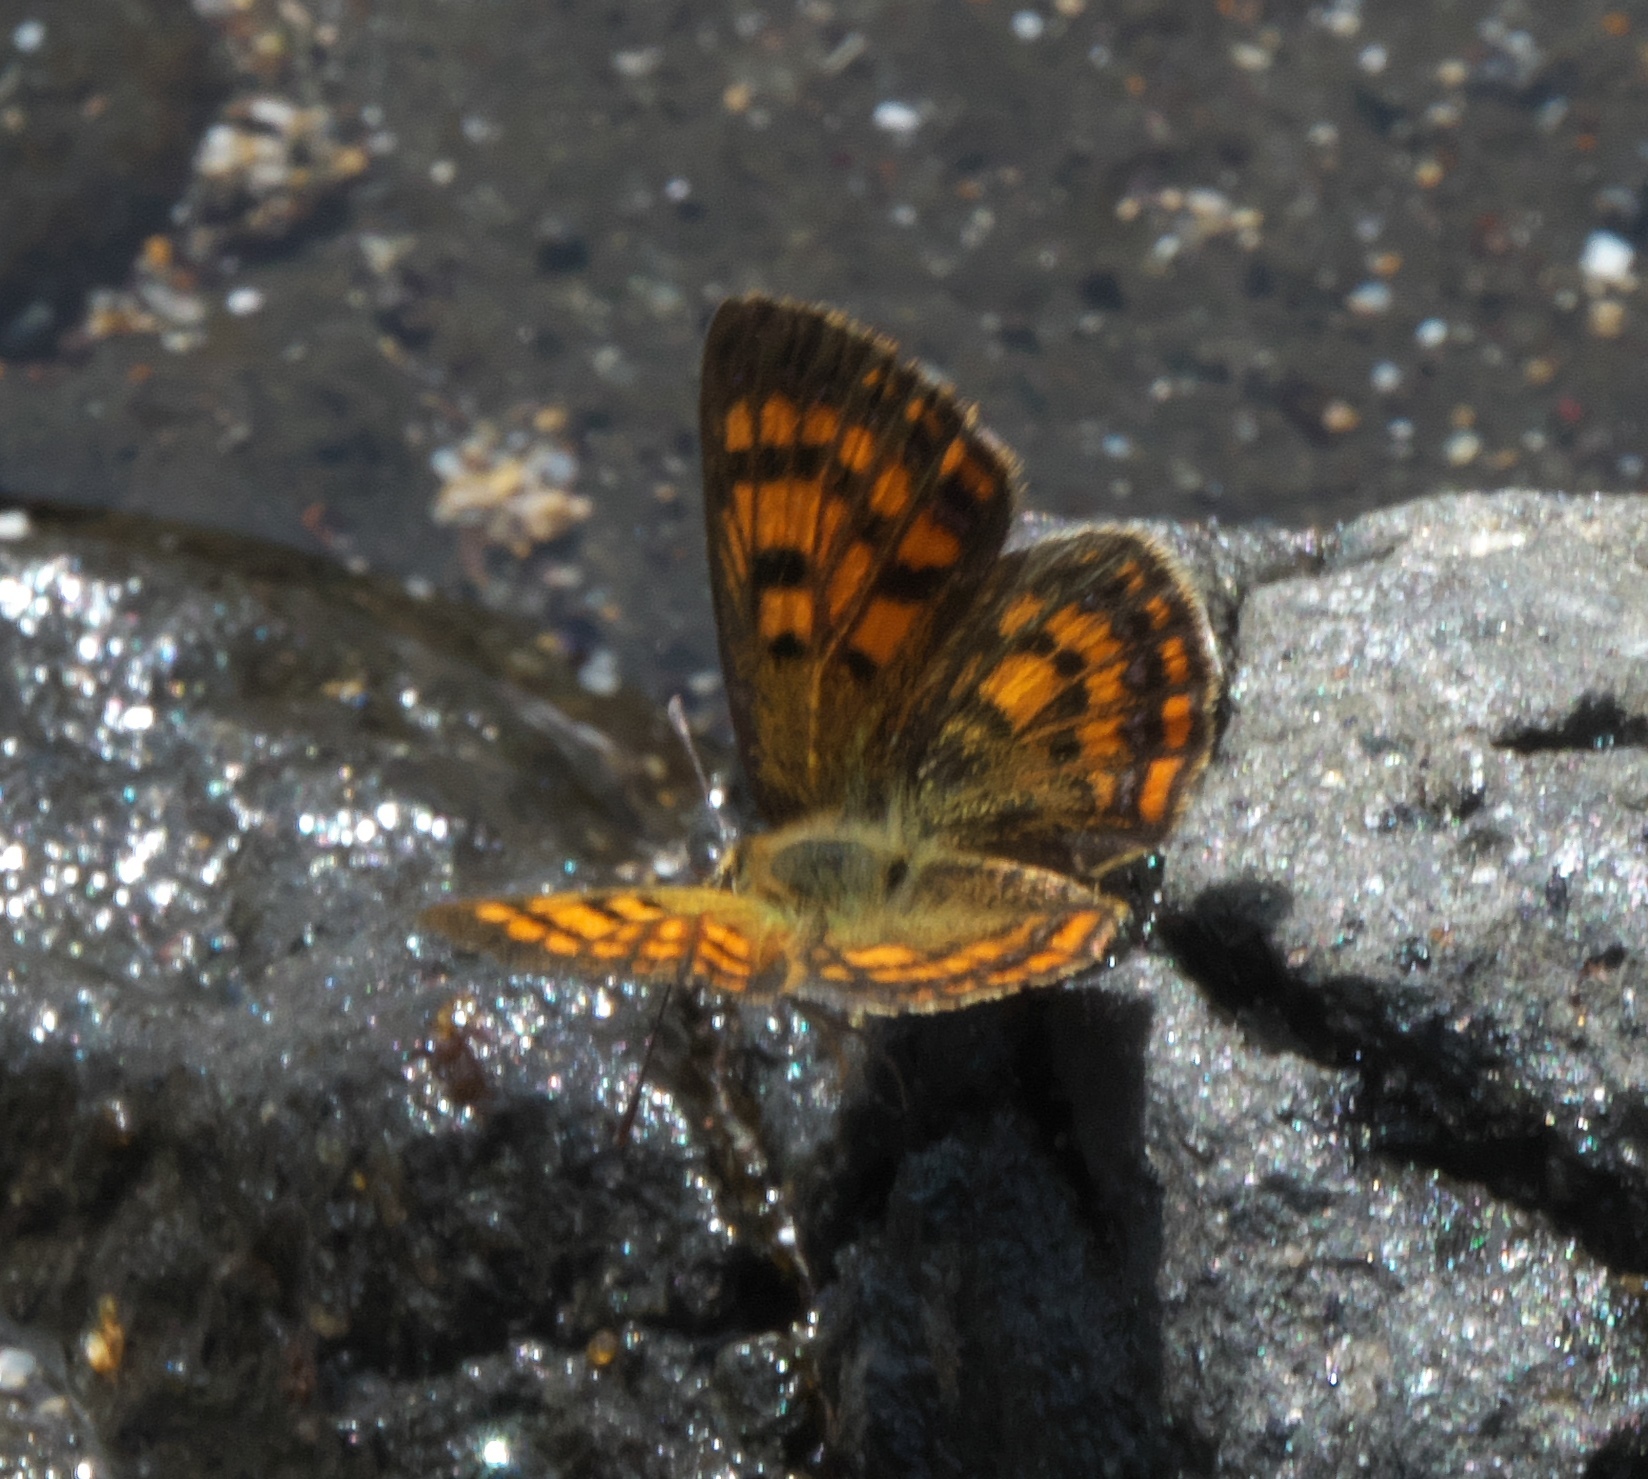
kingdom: Animalia
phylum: Arthropoda
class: Insecta
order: Lepidoptera
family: Lycaenidae
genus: Lycaena
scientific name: Lycaena
